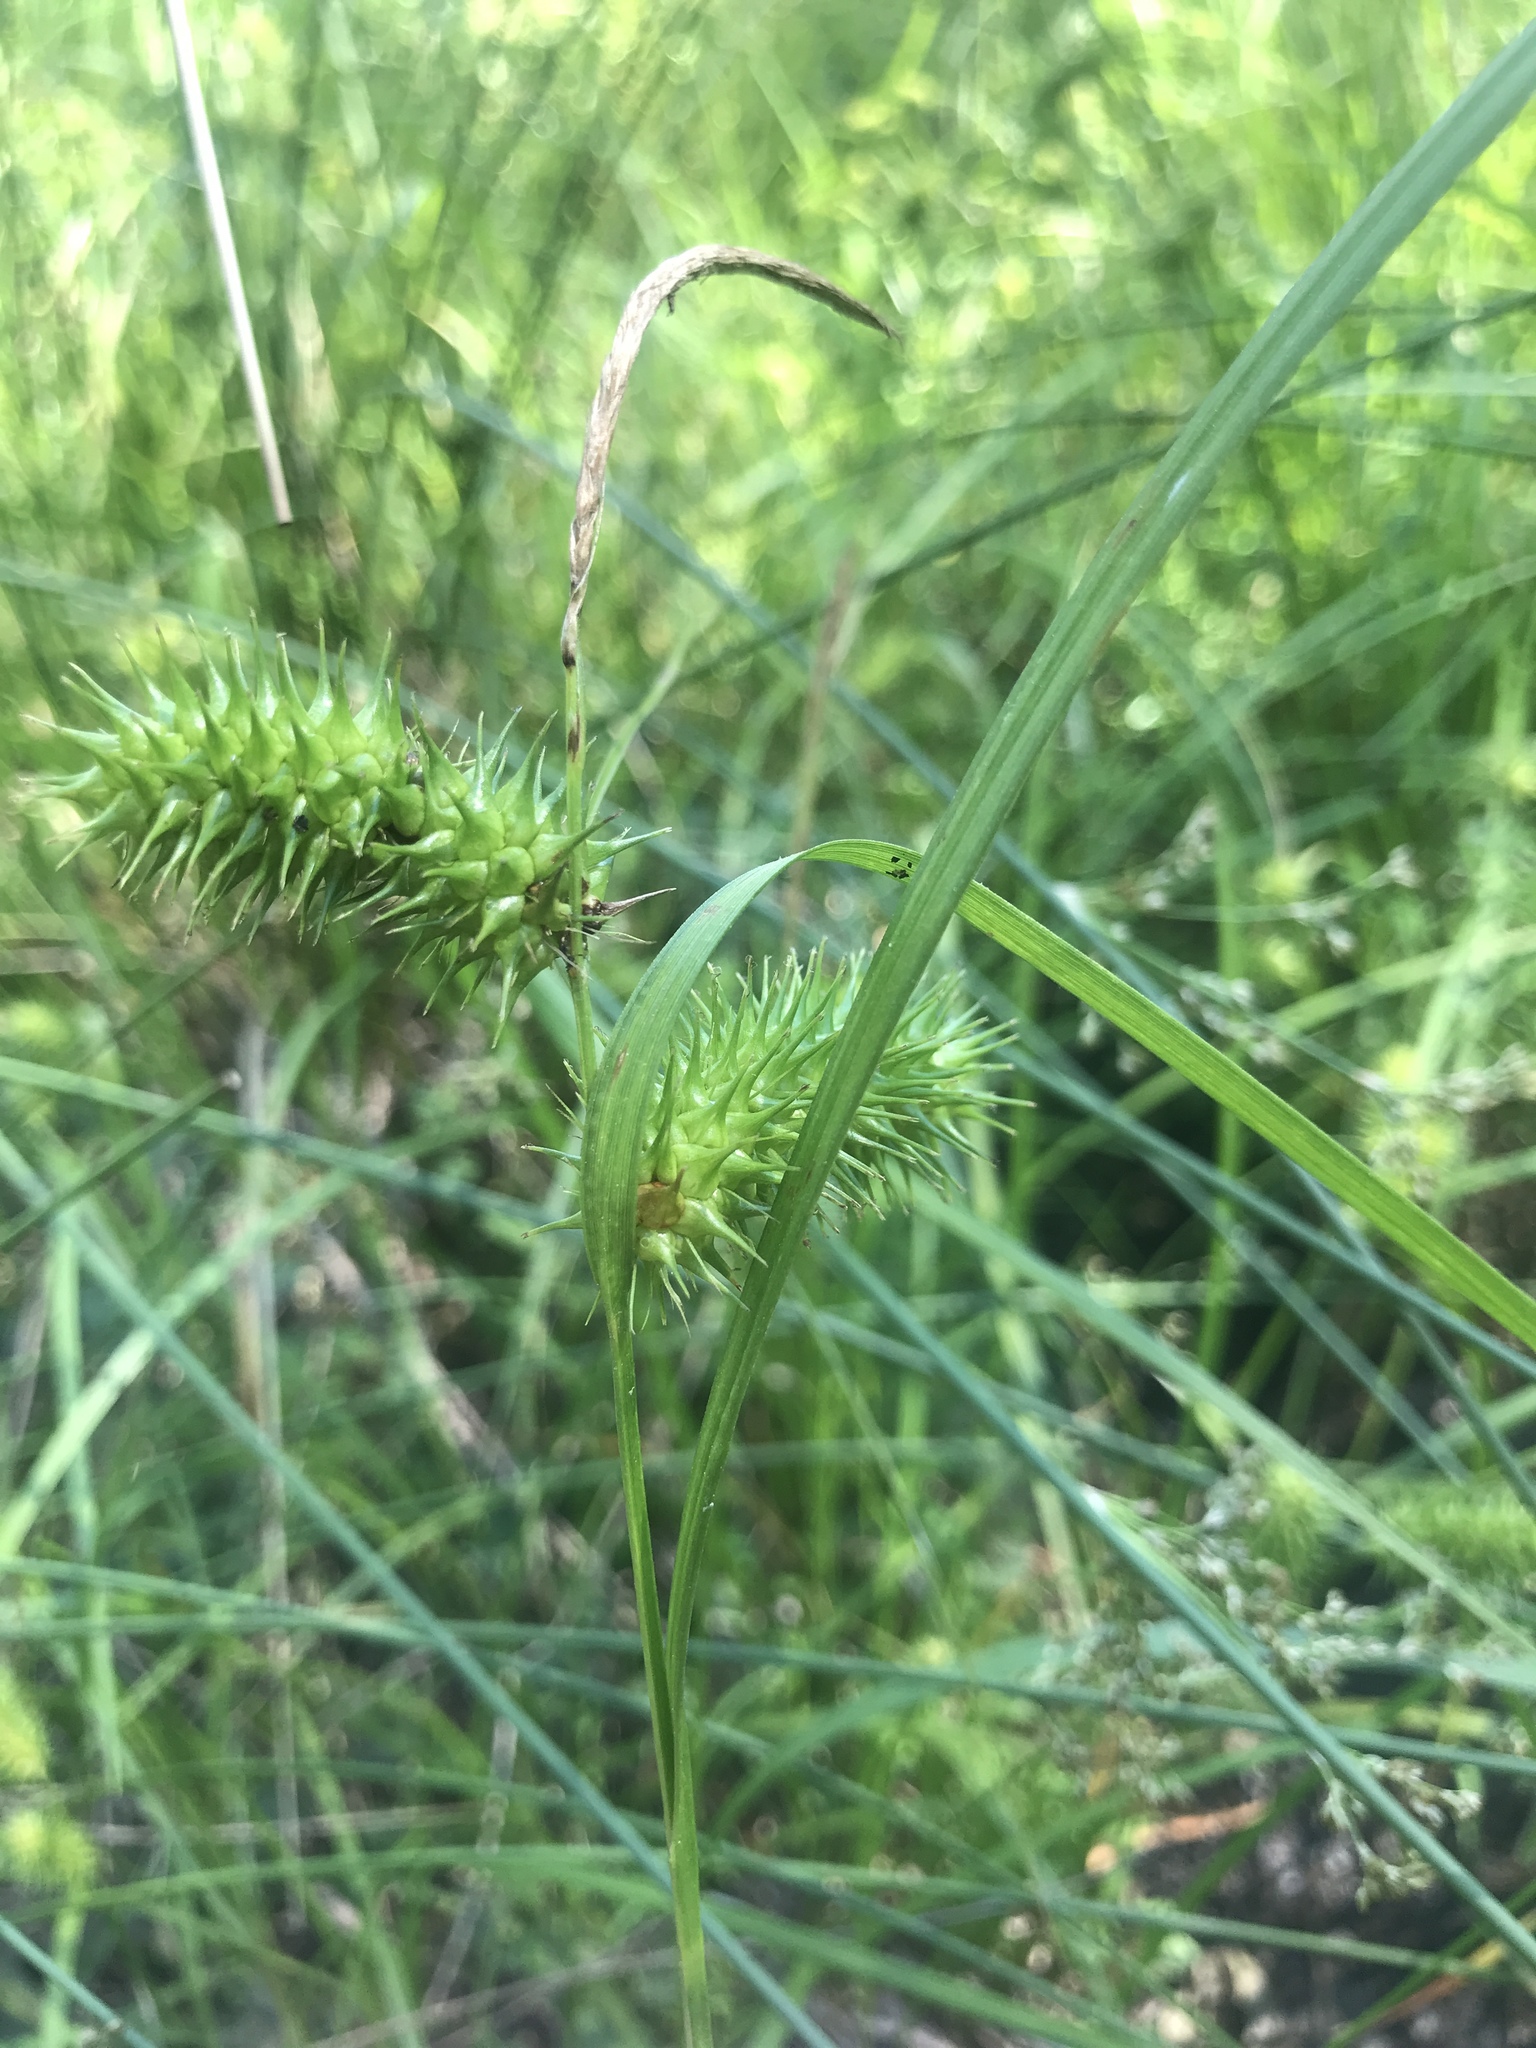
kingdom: Plantae
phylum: Tracheophyta
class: Liliopsida
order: Poales
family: Cyperaceae
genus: Carex
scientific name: Carex lurida
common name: Sallow sedge
